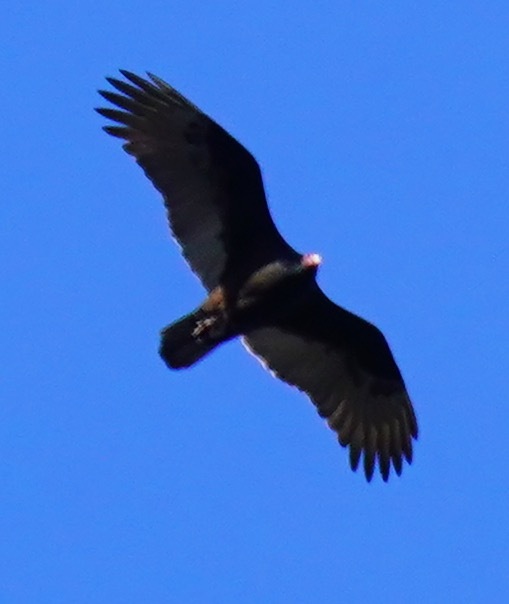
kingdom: Animalia
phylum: Chordata
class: Aves
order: Accipitriformes
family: Cathartidae
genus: Cathartes
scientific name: Cathartes aura
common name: Turkey vulture
